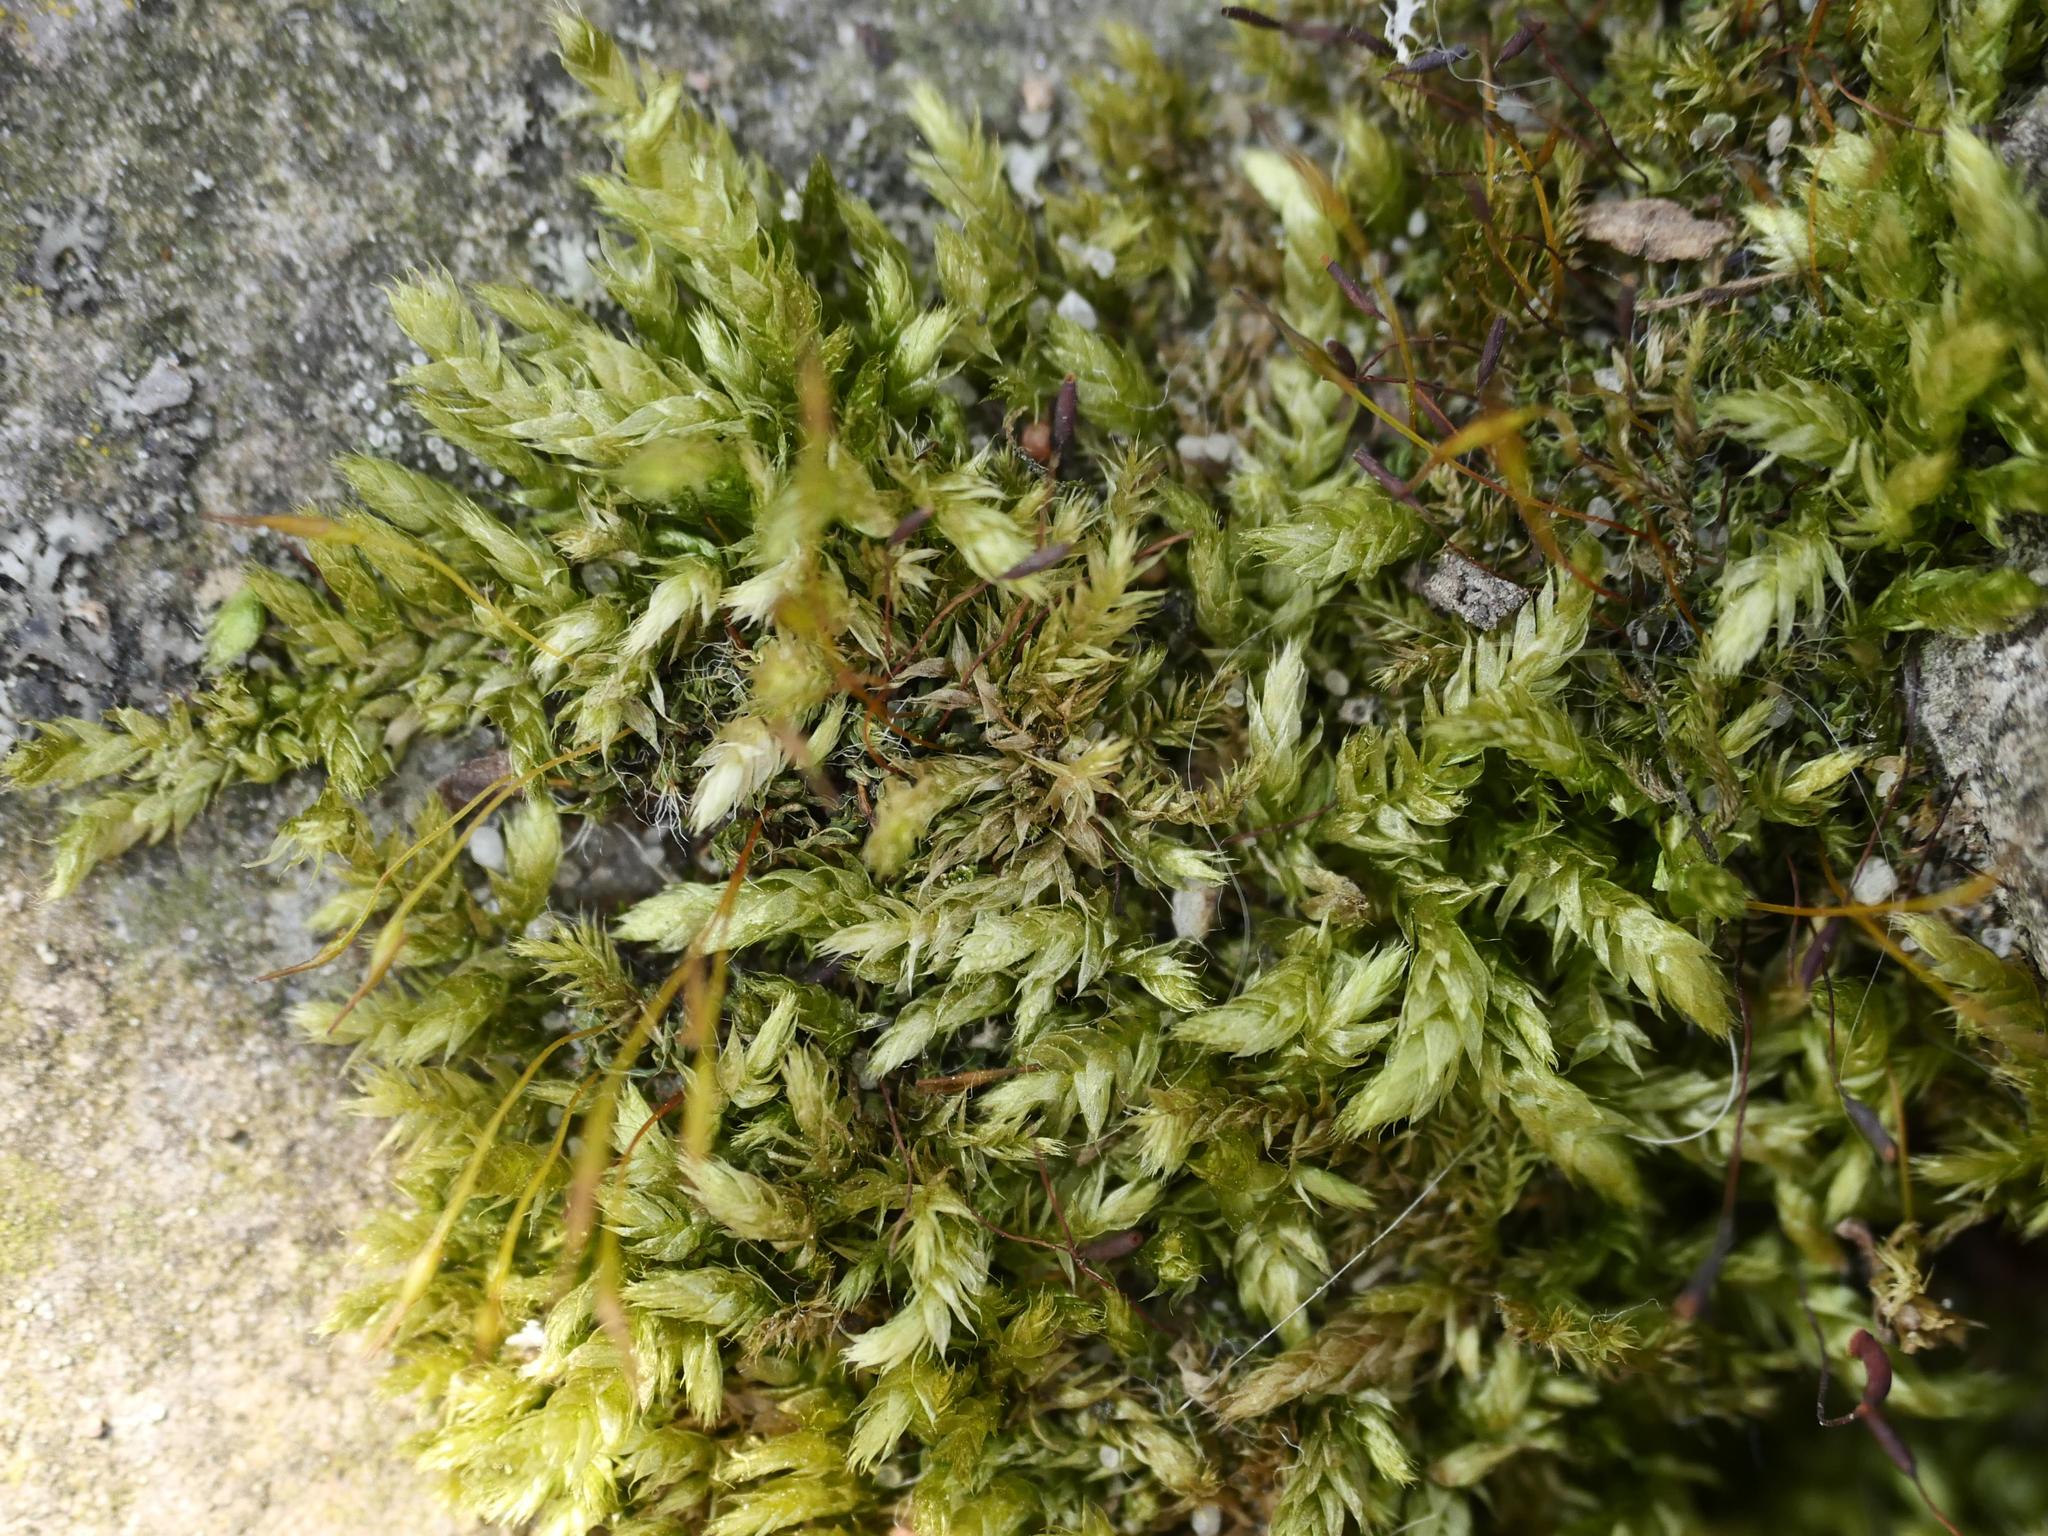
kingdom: Plantae
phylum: Bryophyta
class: Bryopsida
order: Hypnales
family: Brachytheciaceae
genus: Brachythecium
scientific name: Brachythecium rutabulum
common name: Rough-stalked feather-moss
